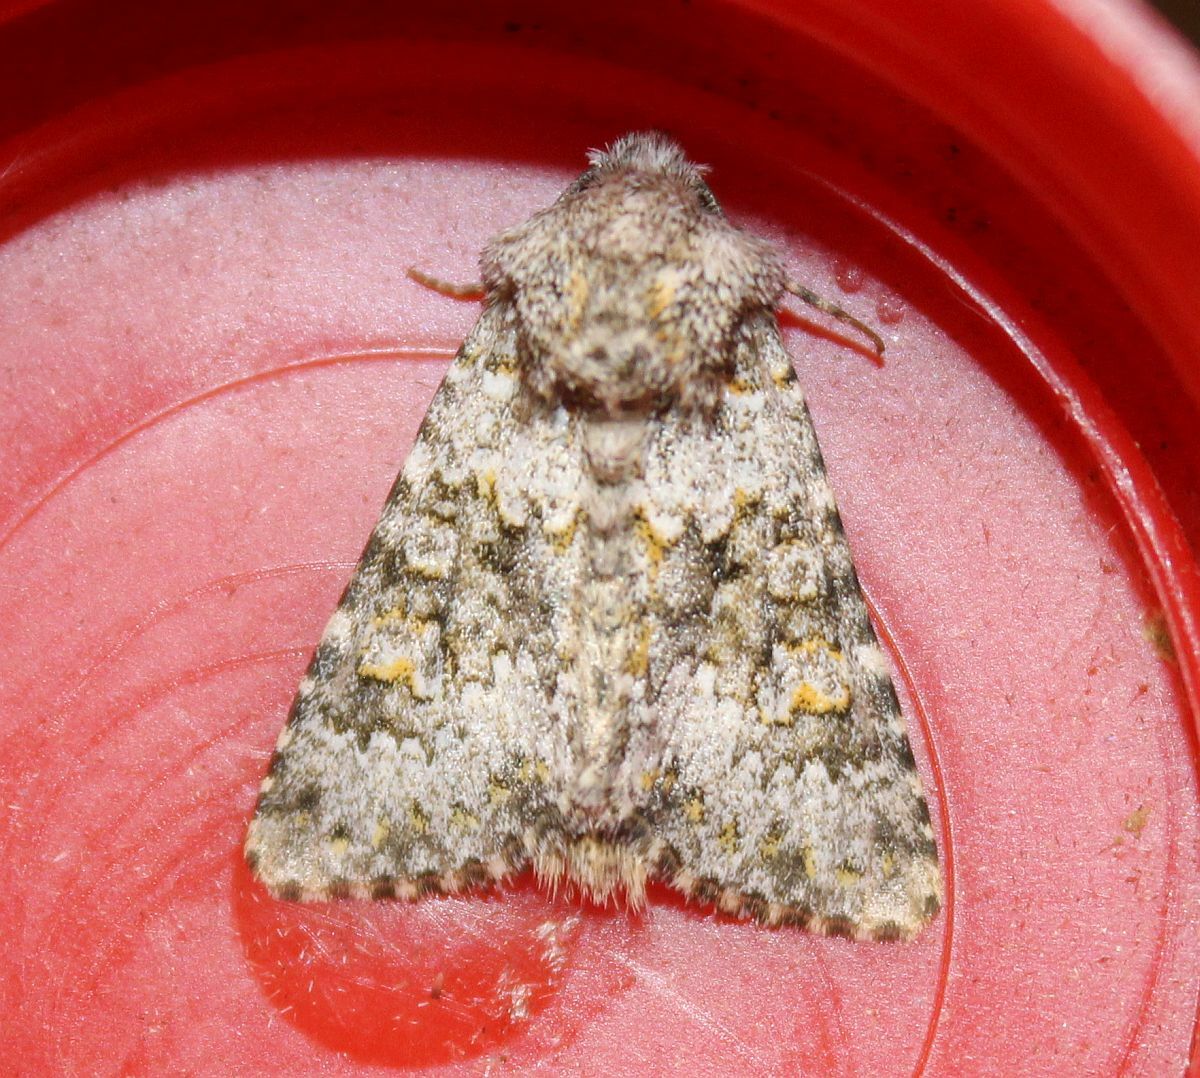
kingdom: Animalia
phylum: Arthropoda
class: Insecta
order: Lepidoptera
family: Noctuidae
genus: Hecatera
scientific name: Hecatera dysodea
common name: Small ranunculus
